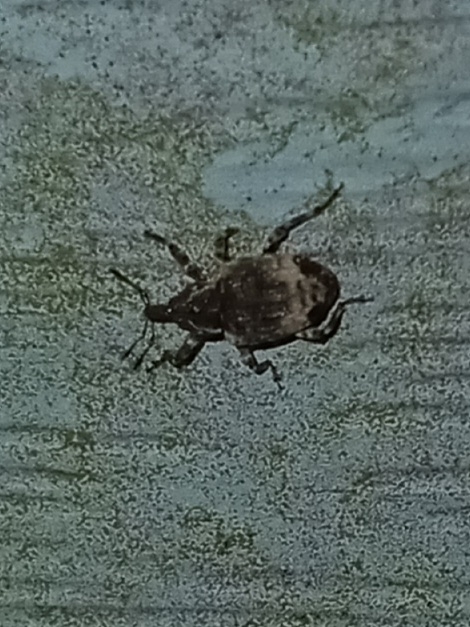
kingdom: Animalia
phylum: Arthropoda
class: Insecta
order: Coleoptera
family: Curculionidae
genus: Conotrachelus
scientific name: Conotrachelus seniculus
